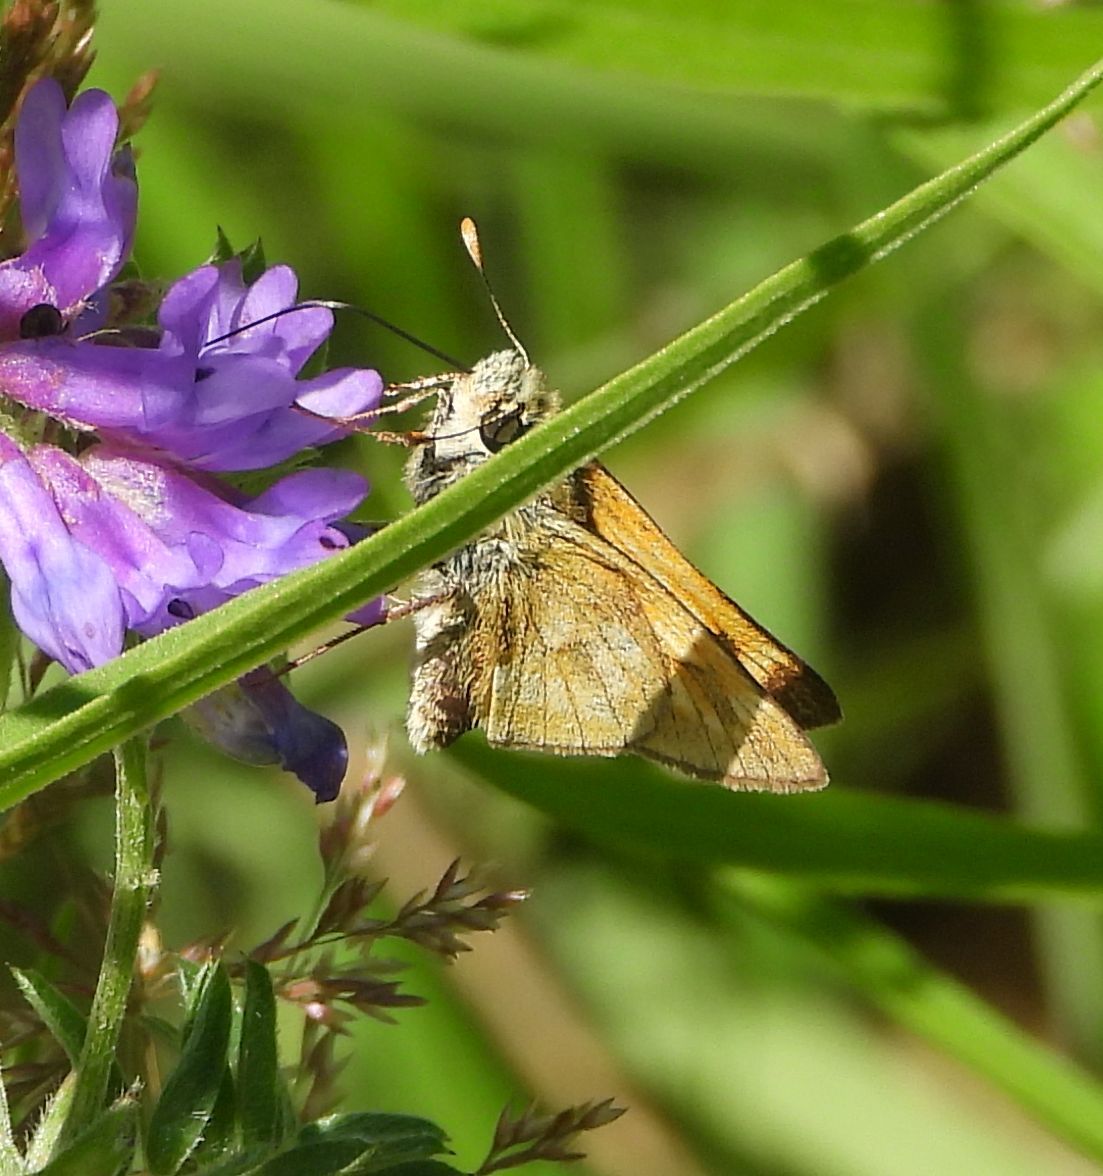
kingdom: Animalia
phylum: Arthropoda
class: Insecta
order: Lepidoptera
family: Hesperiidae
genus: Polites
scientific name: Polites mystic
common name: Long dash
